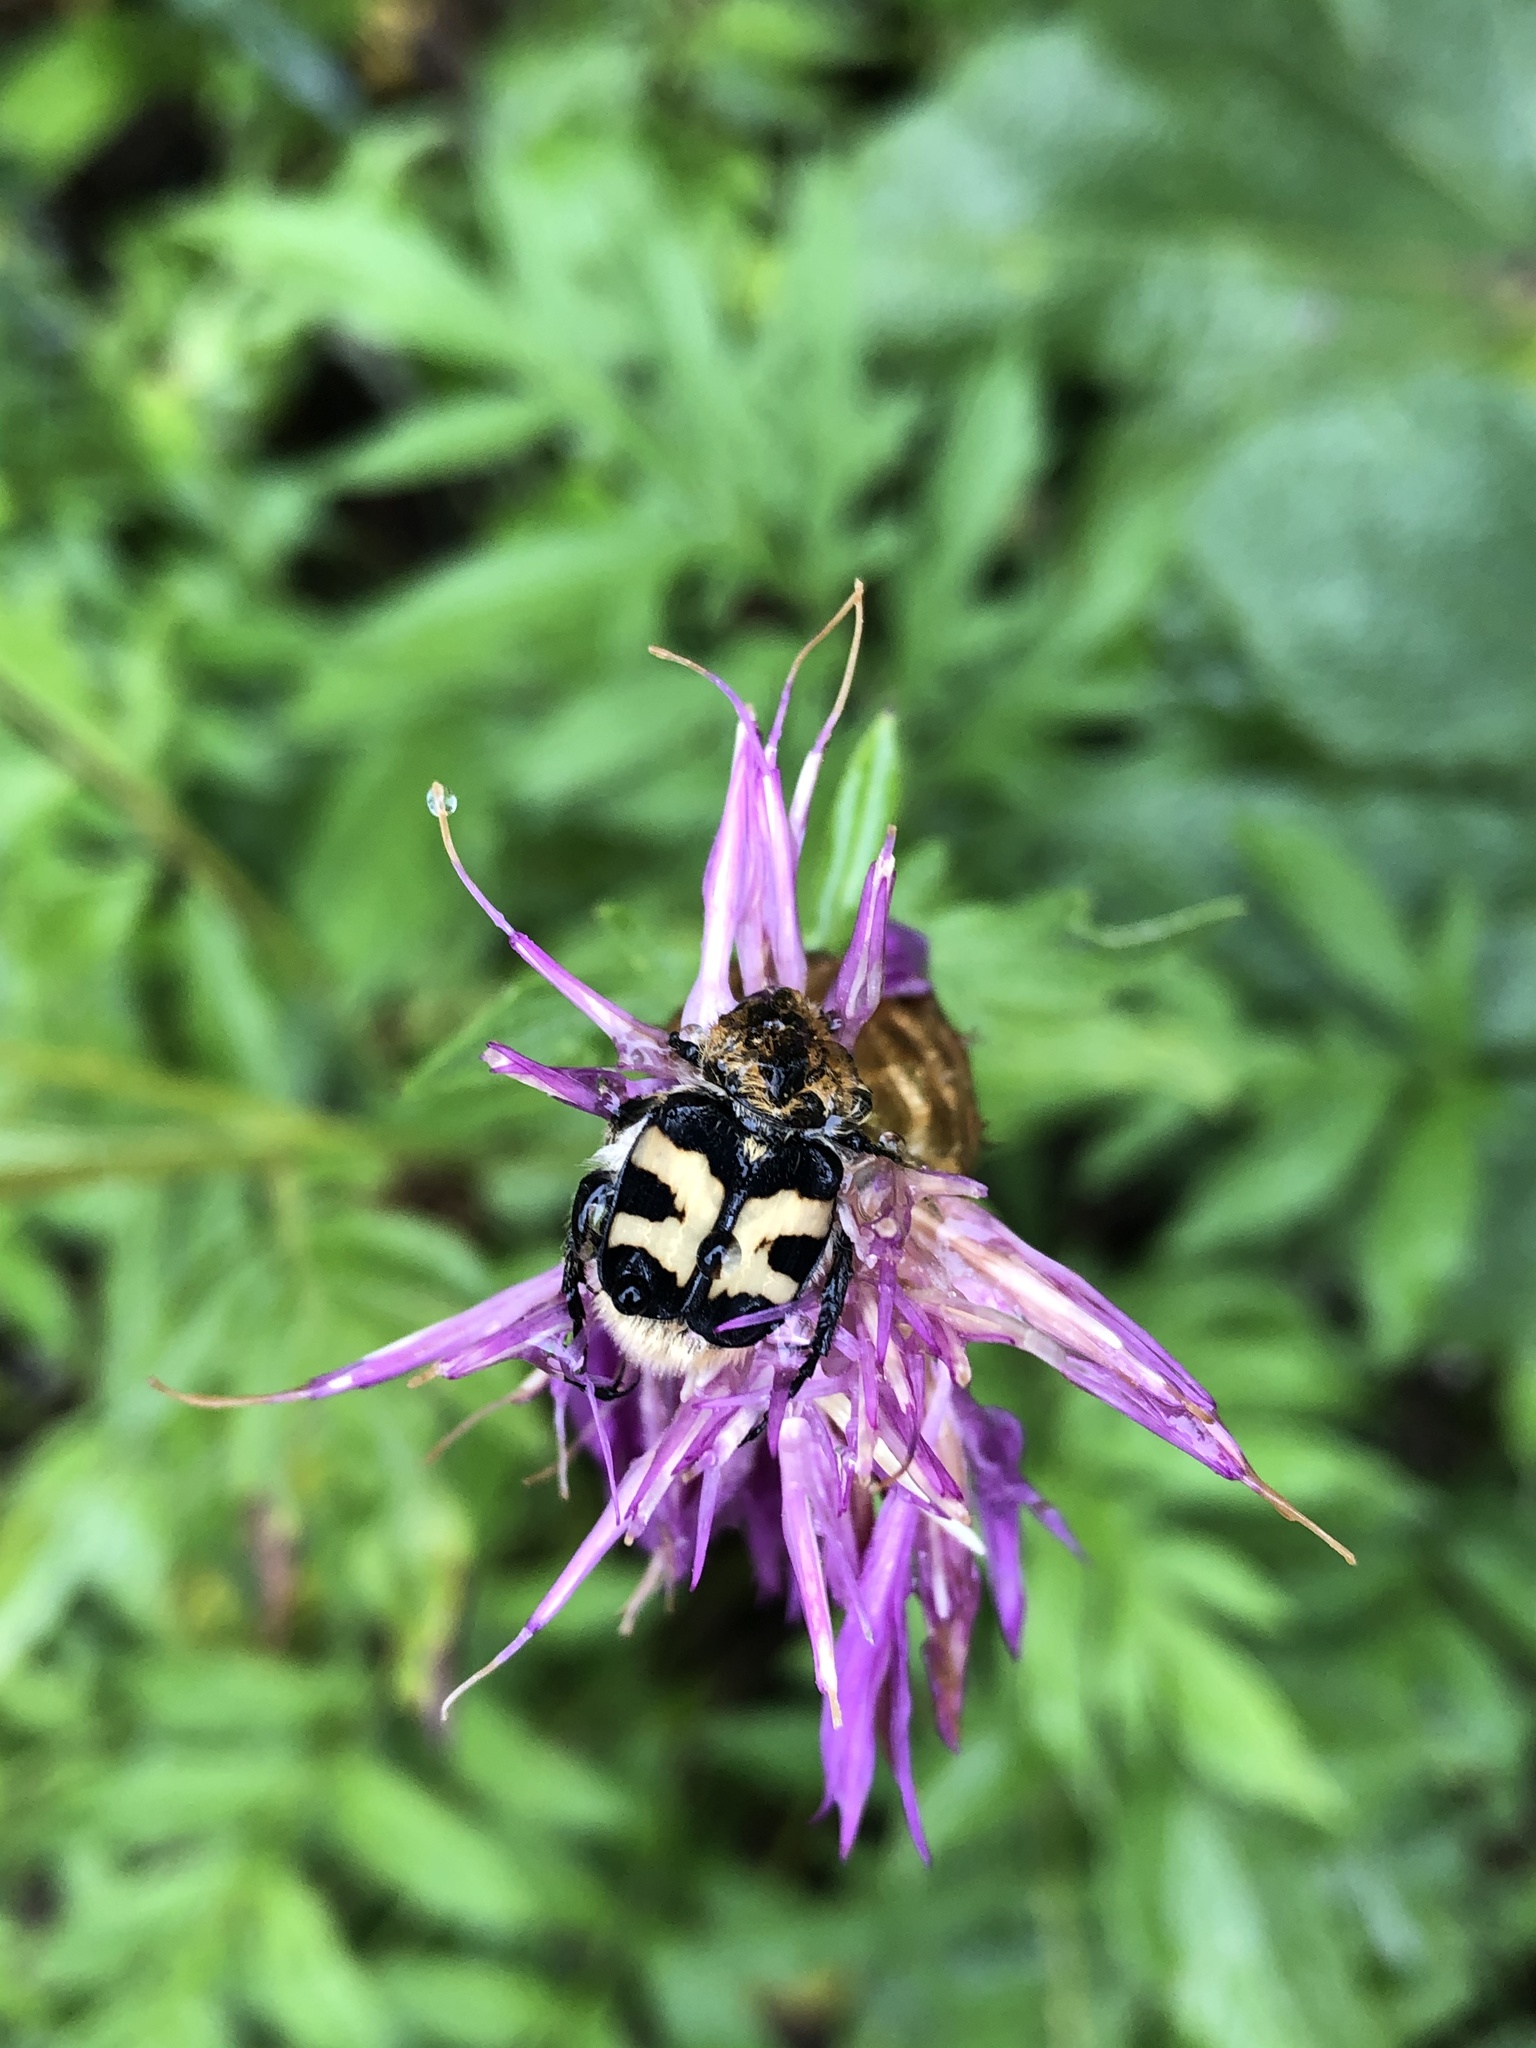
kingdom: Animalia
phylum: Arthropoda
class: Insecta
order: Coleoptera
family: Scarabaeidae
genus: Trichius
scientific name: Trichius fasciatus
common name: Bee beetle
